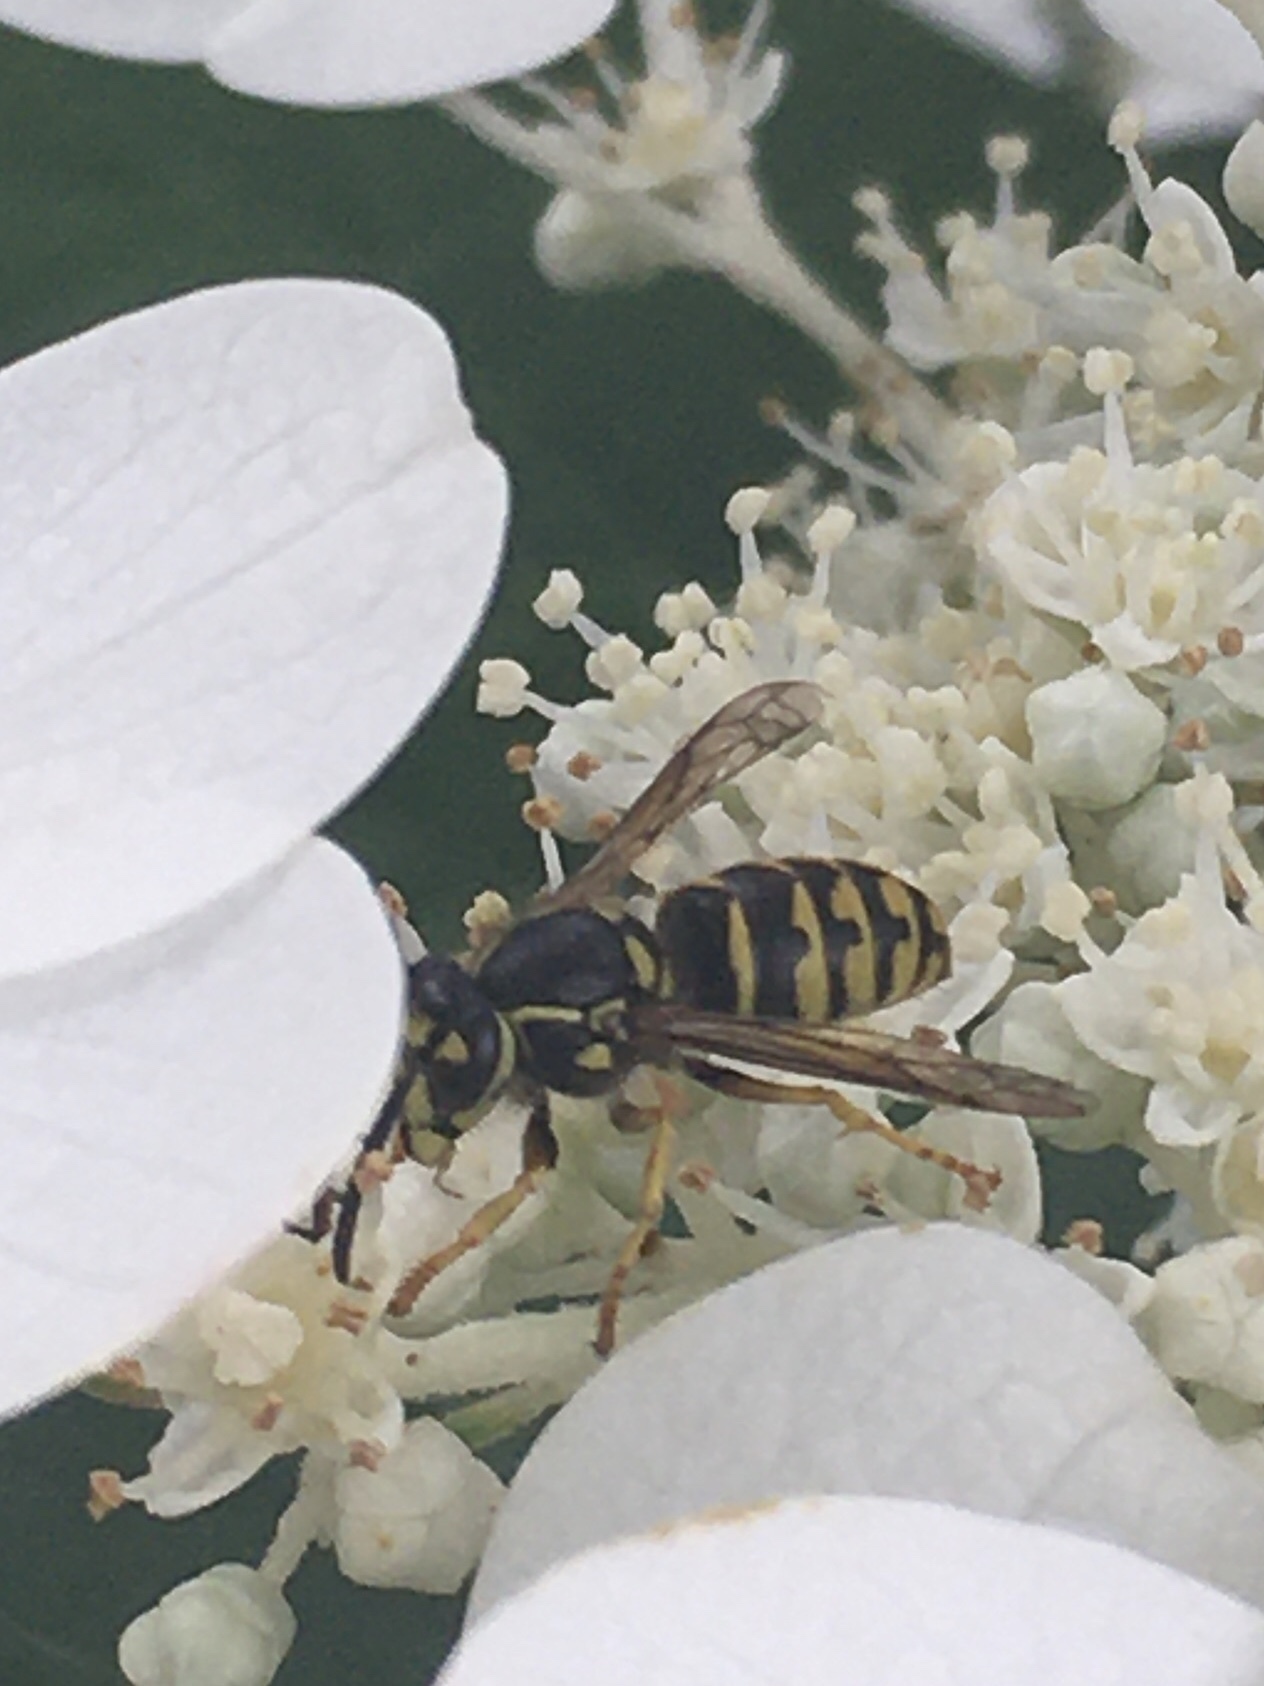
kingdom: Animalia
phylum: Arthropoda
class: Insecta
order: Hymenoptera
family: Vespidae
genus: Dolichovespula
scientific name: Dolichovespula arenaria
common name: Aerial yellowjacket
